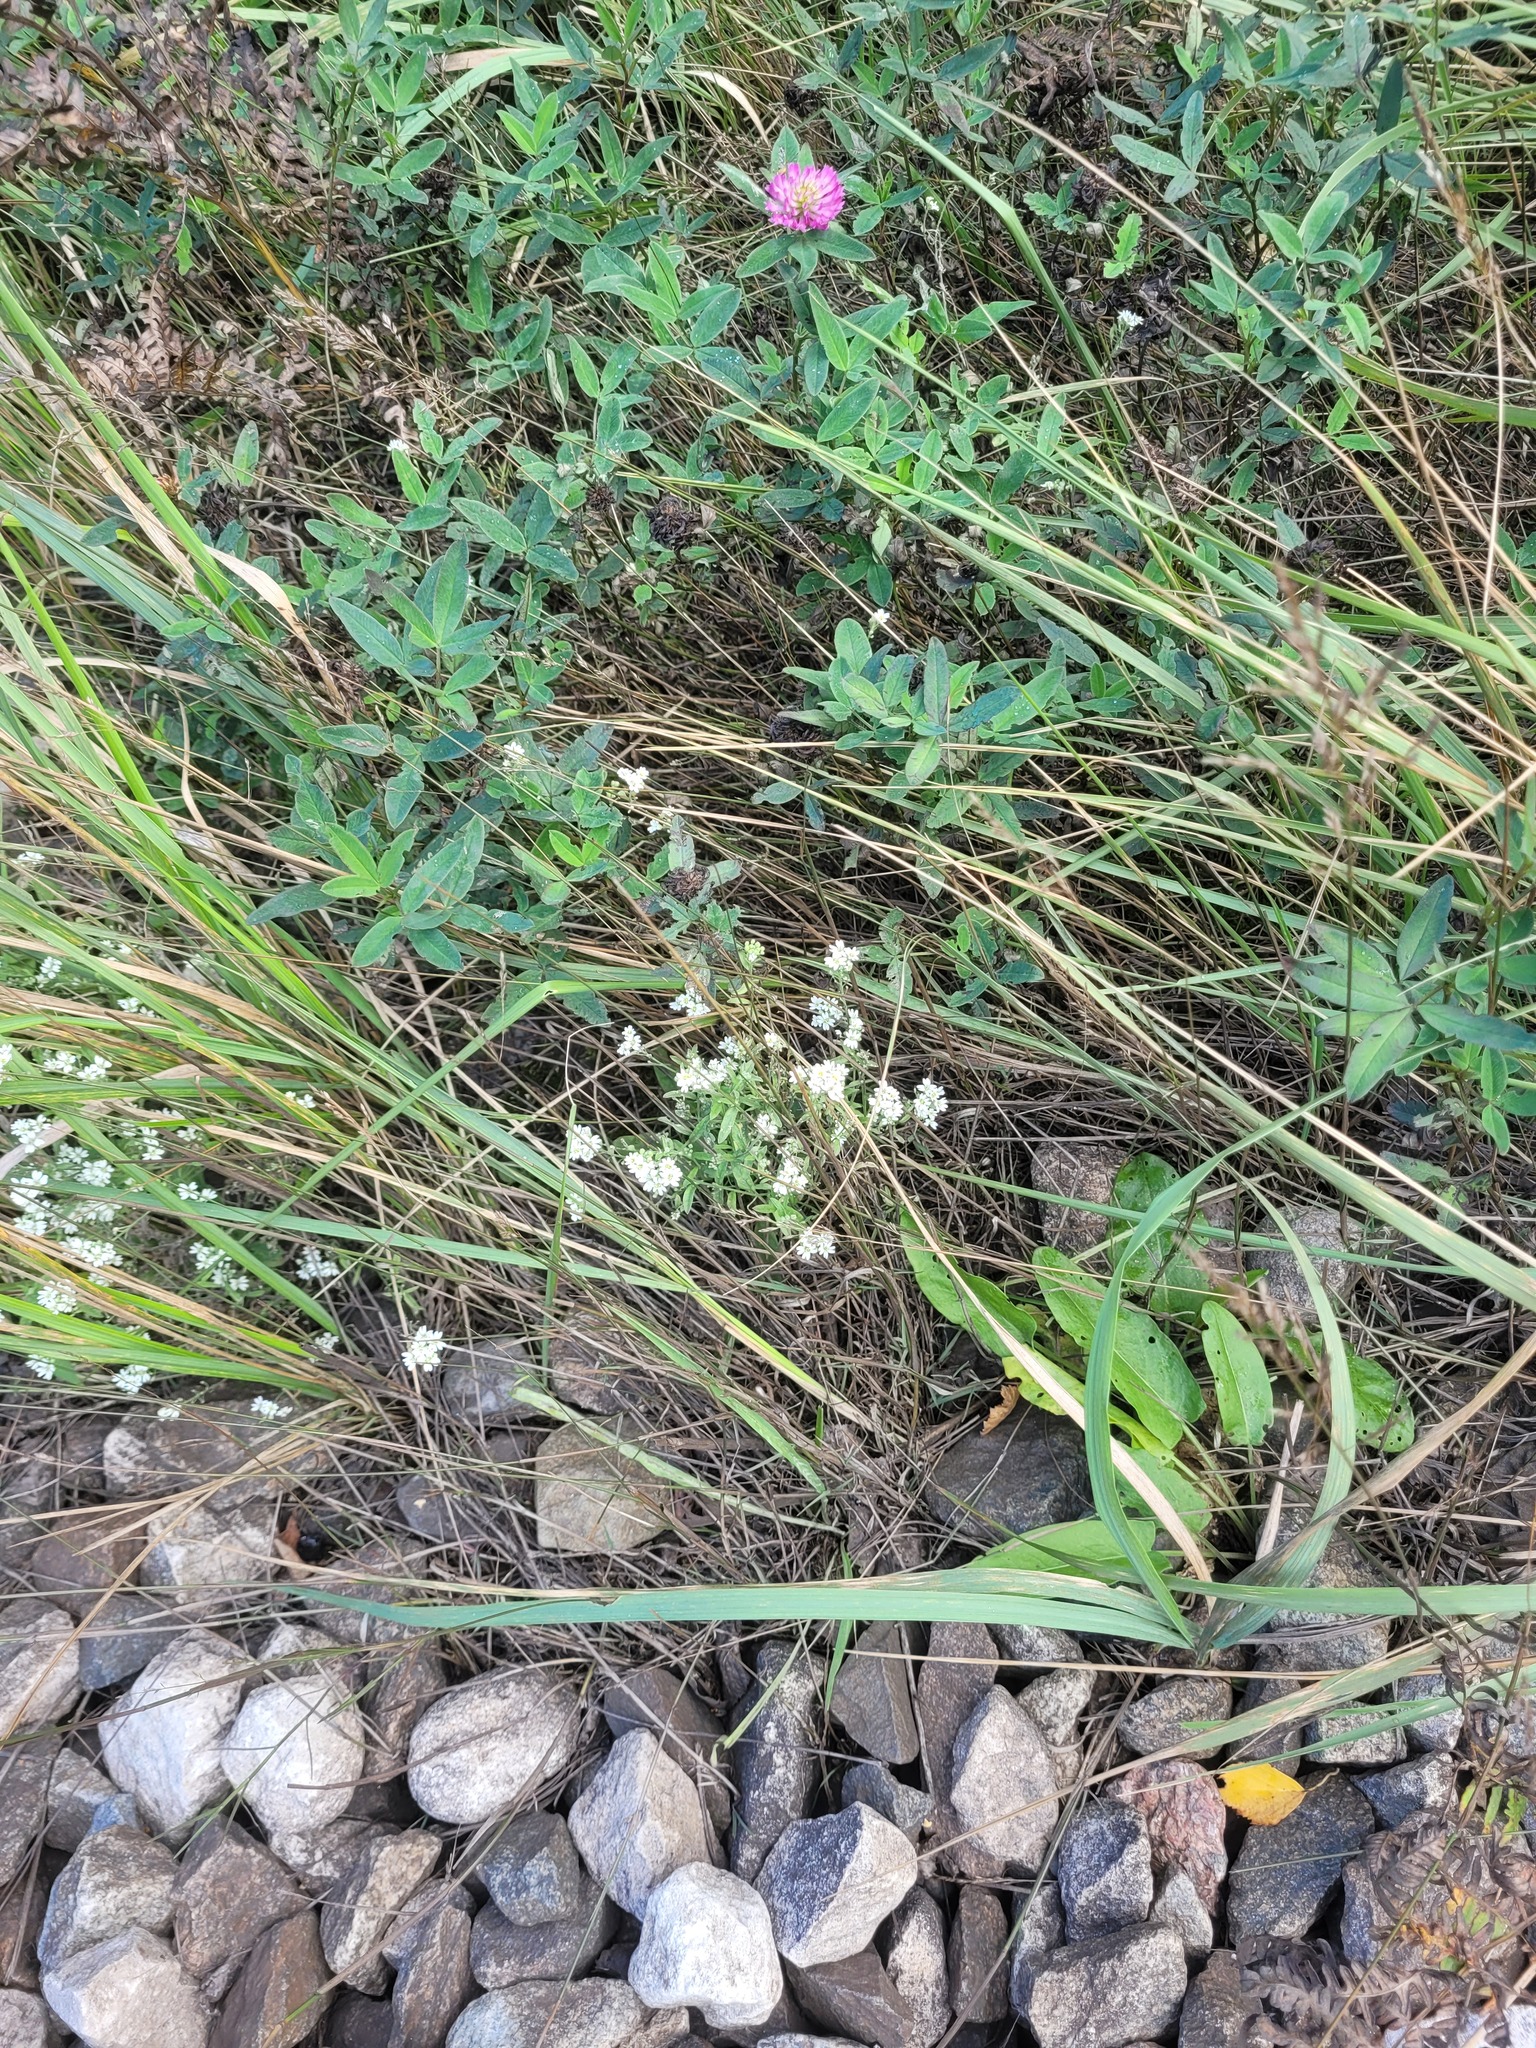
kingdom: Plantae
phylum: Tracheophyta
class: Magnoliopsida
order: Brassicales
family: Brassicaceae
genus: Berteroa
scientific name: Berteroa incana
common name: Hoary alison
